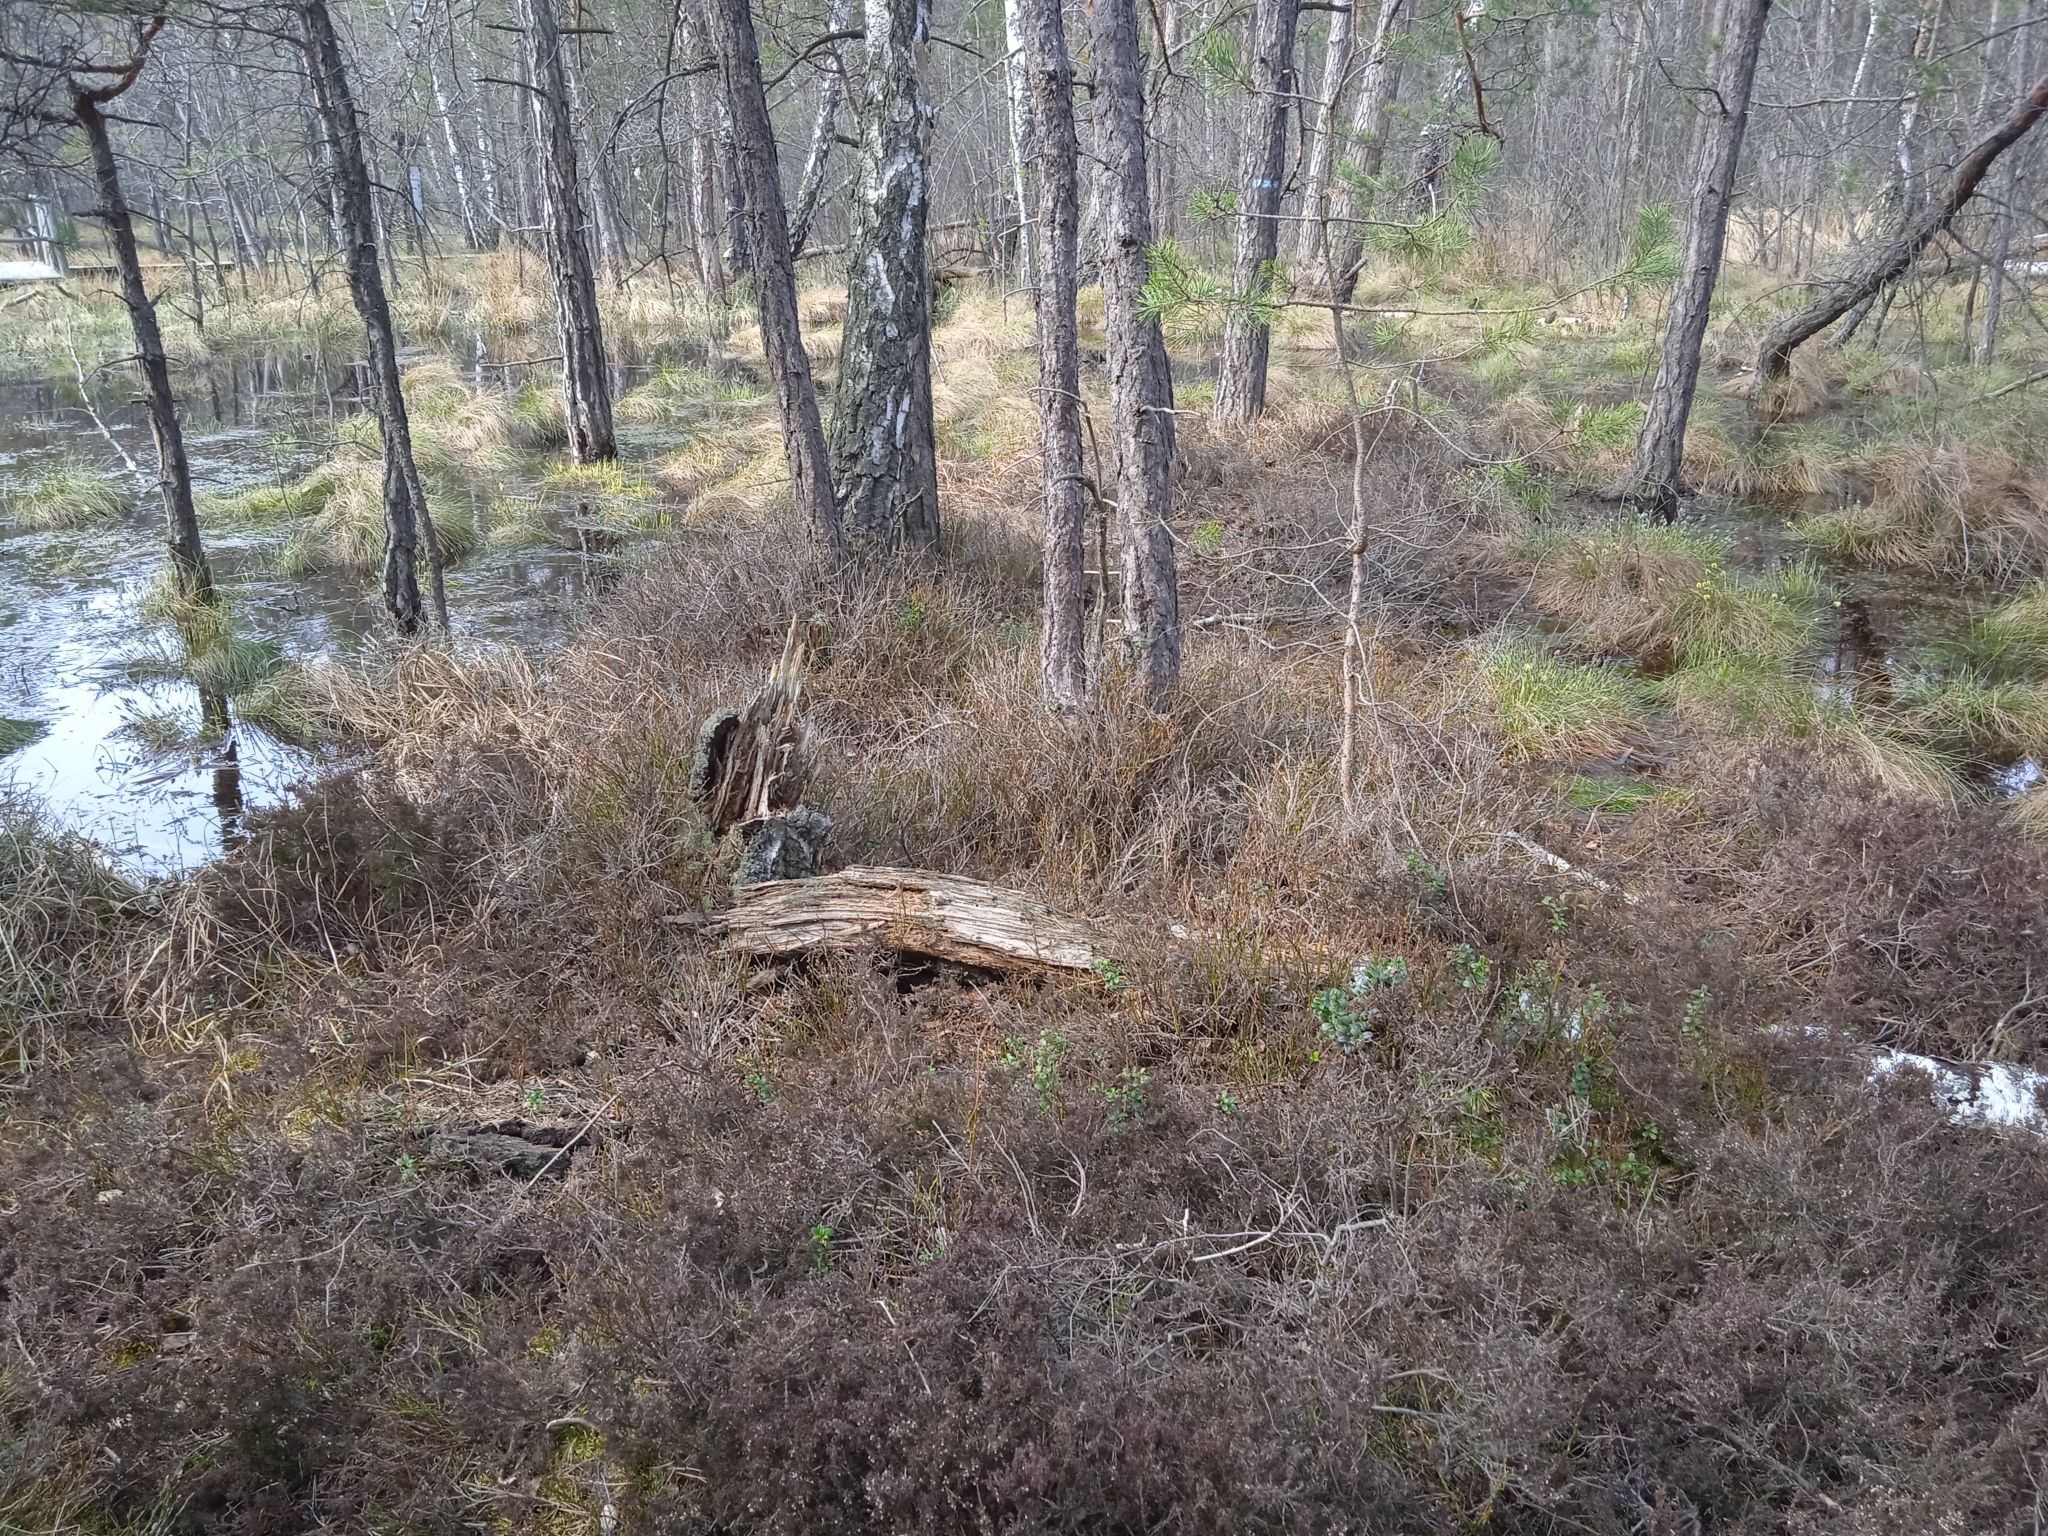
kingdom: Plantae
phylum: Tracheophyta
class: Magnoliopsida
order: Ericales
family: Ericaceae
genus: Calluna
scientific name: Calluna vulgaris
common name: Heather
